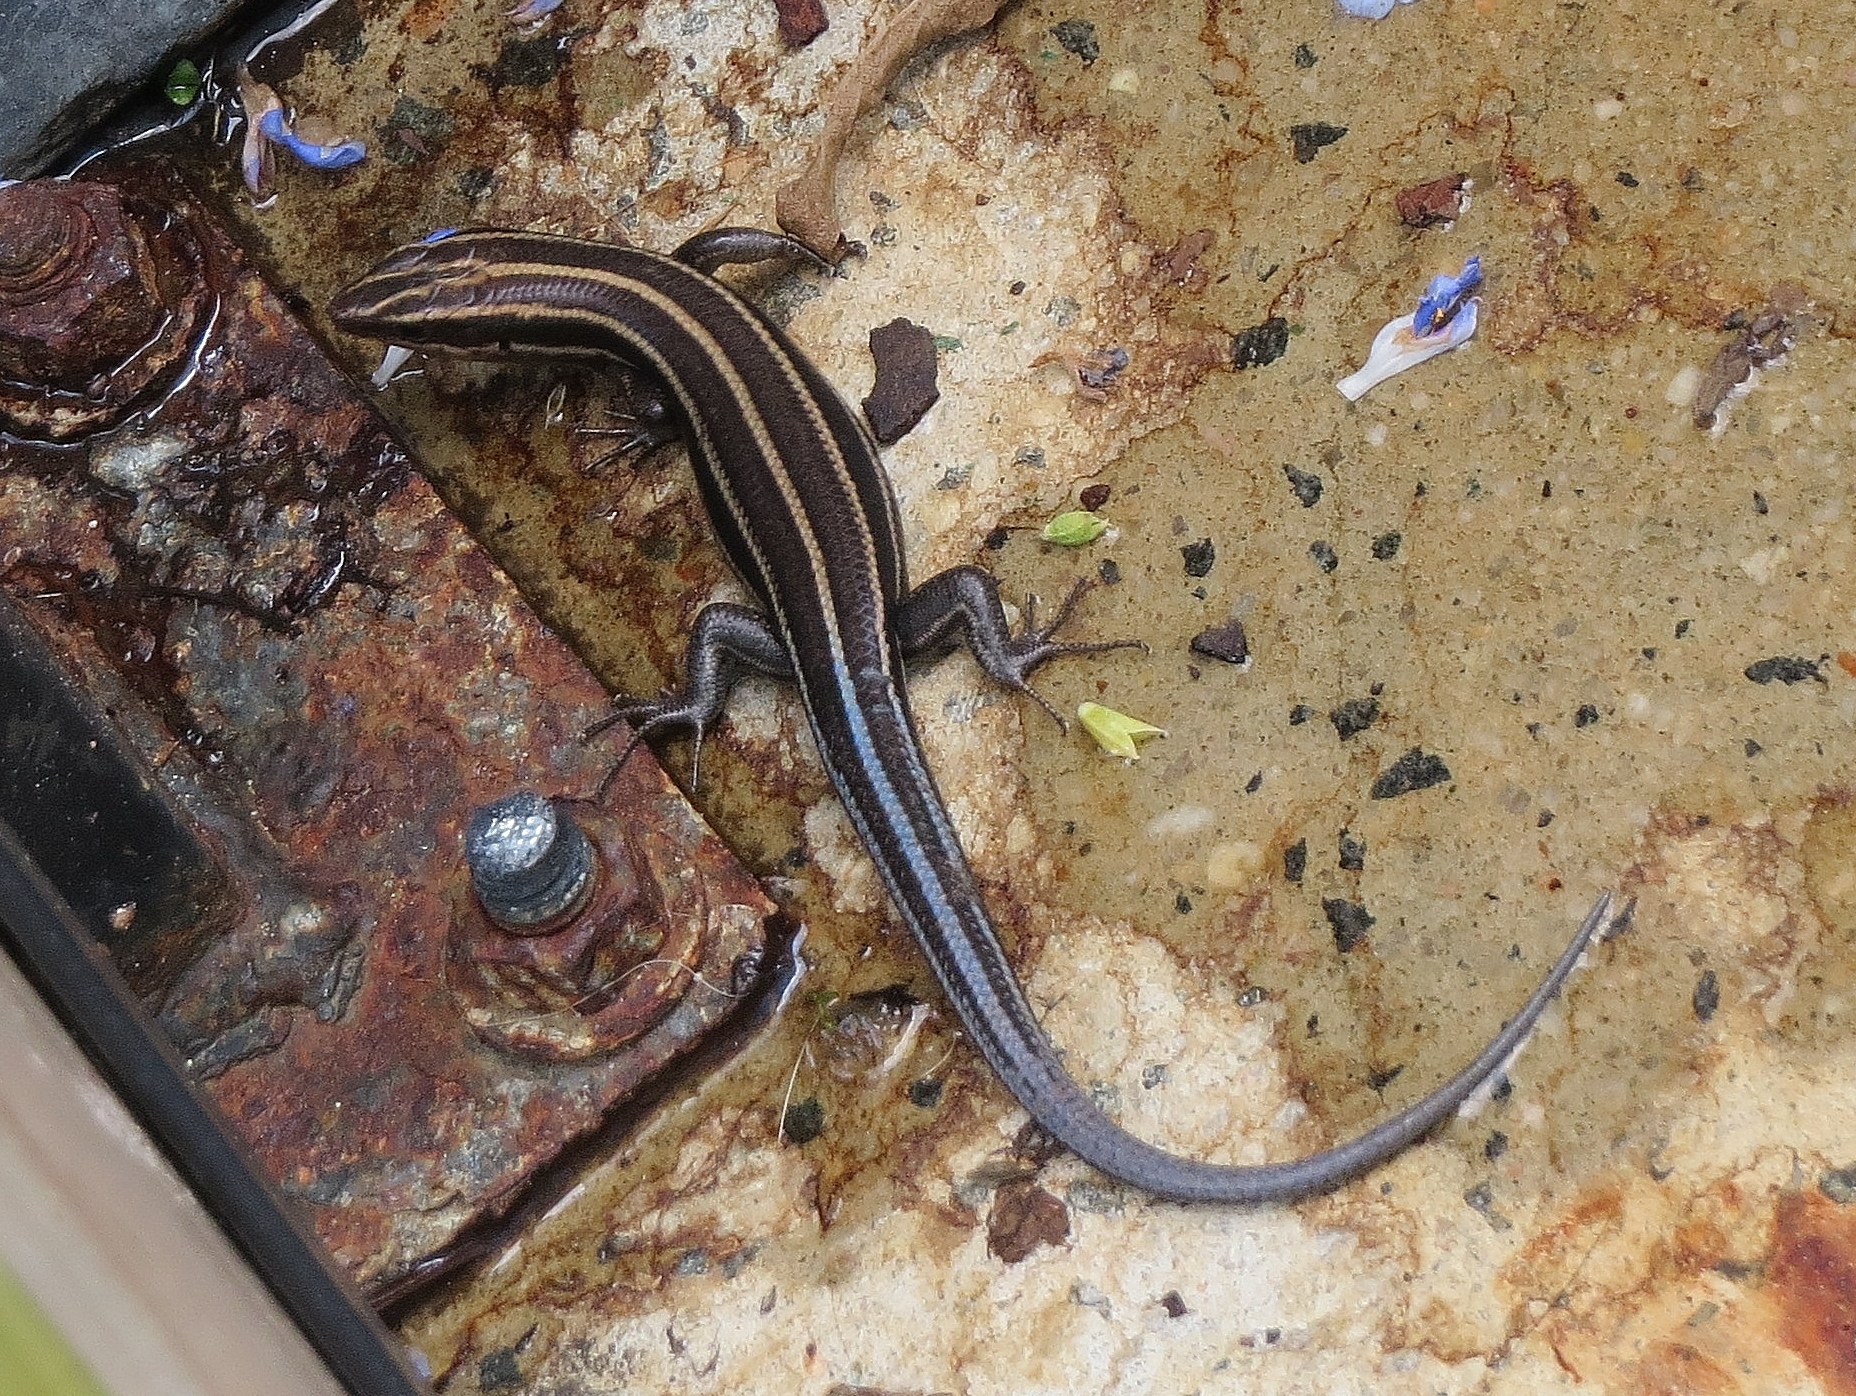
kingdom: Animalia
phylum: Chordata
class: Squamata
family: Scincidae
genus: Plestiodon
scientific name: Plestiodon fasciatus
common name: Five-lined skink
